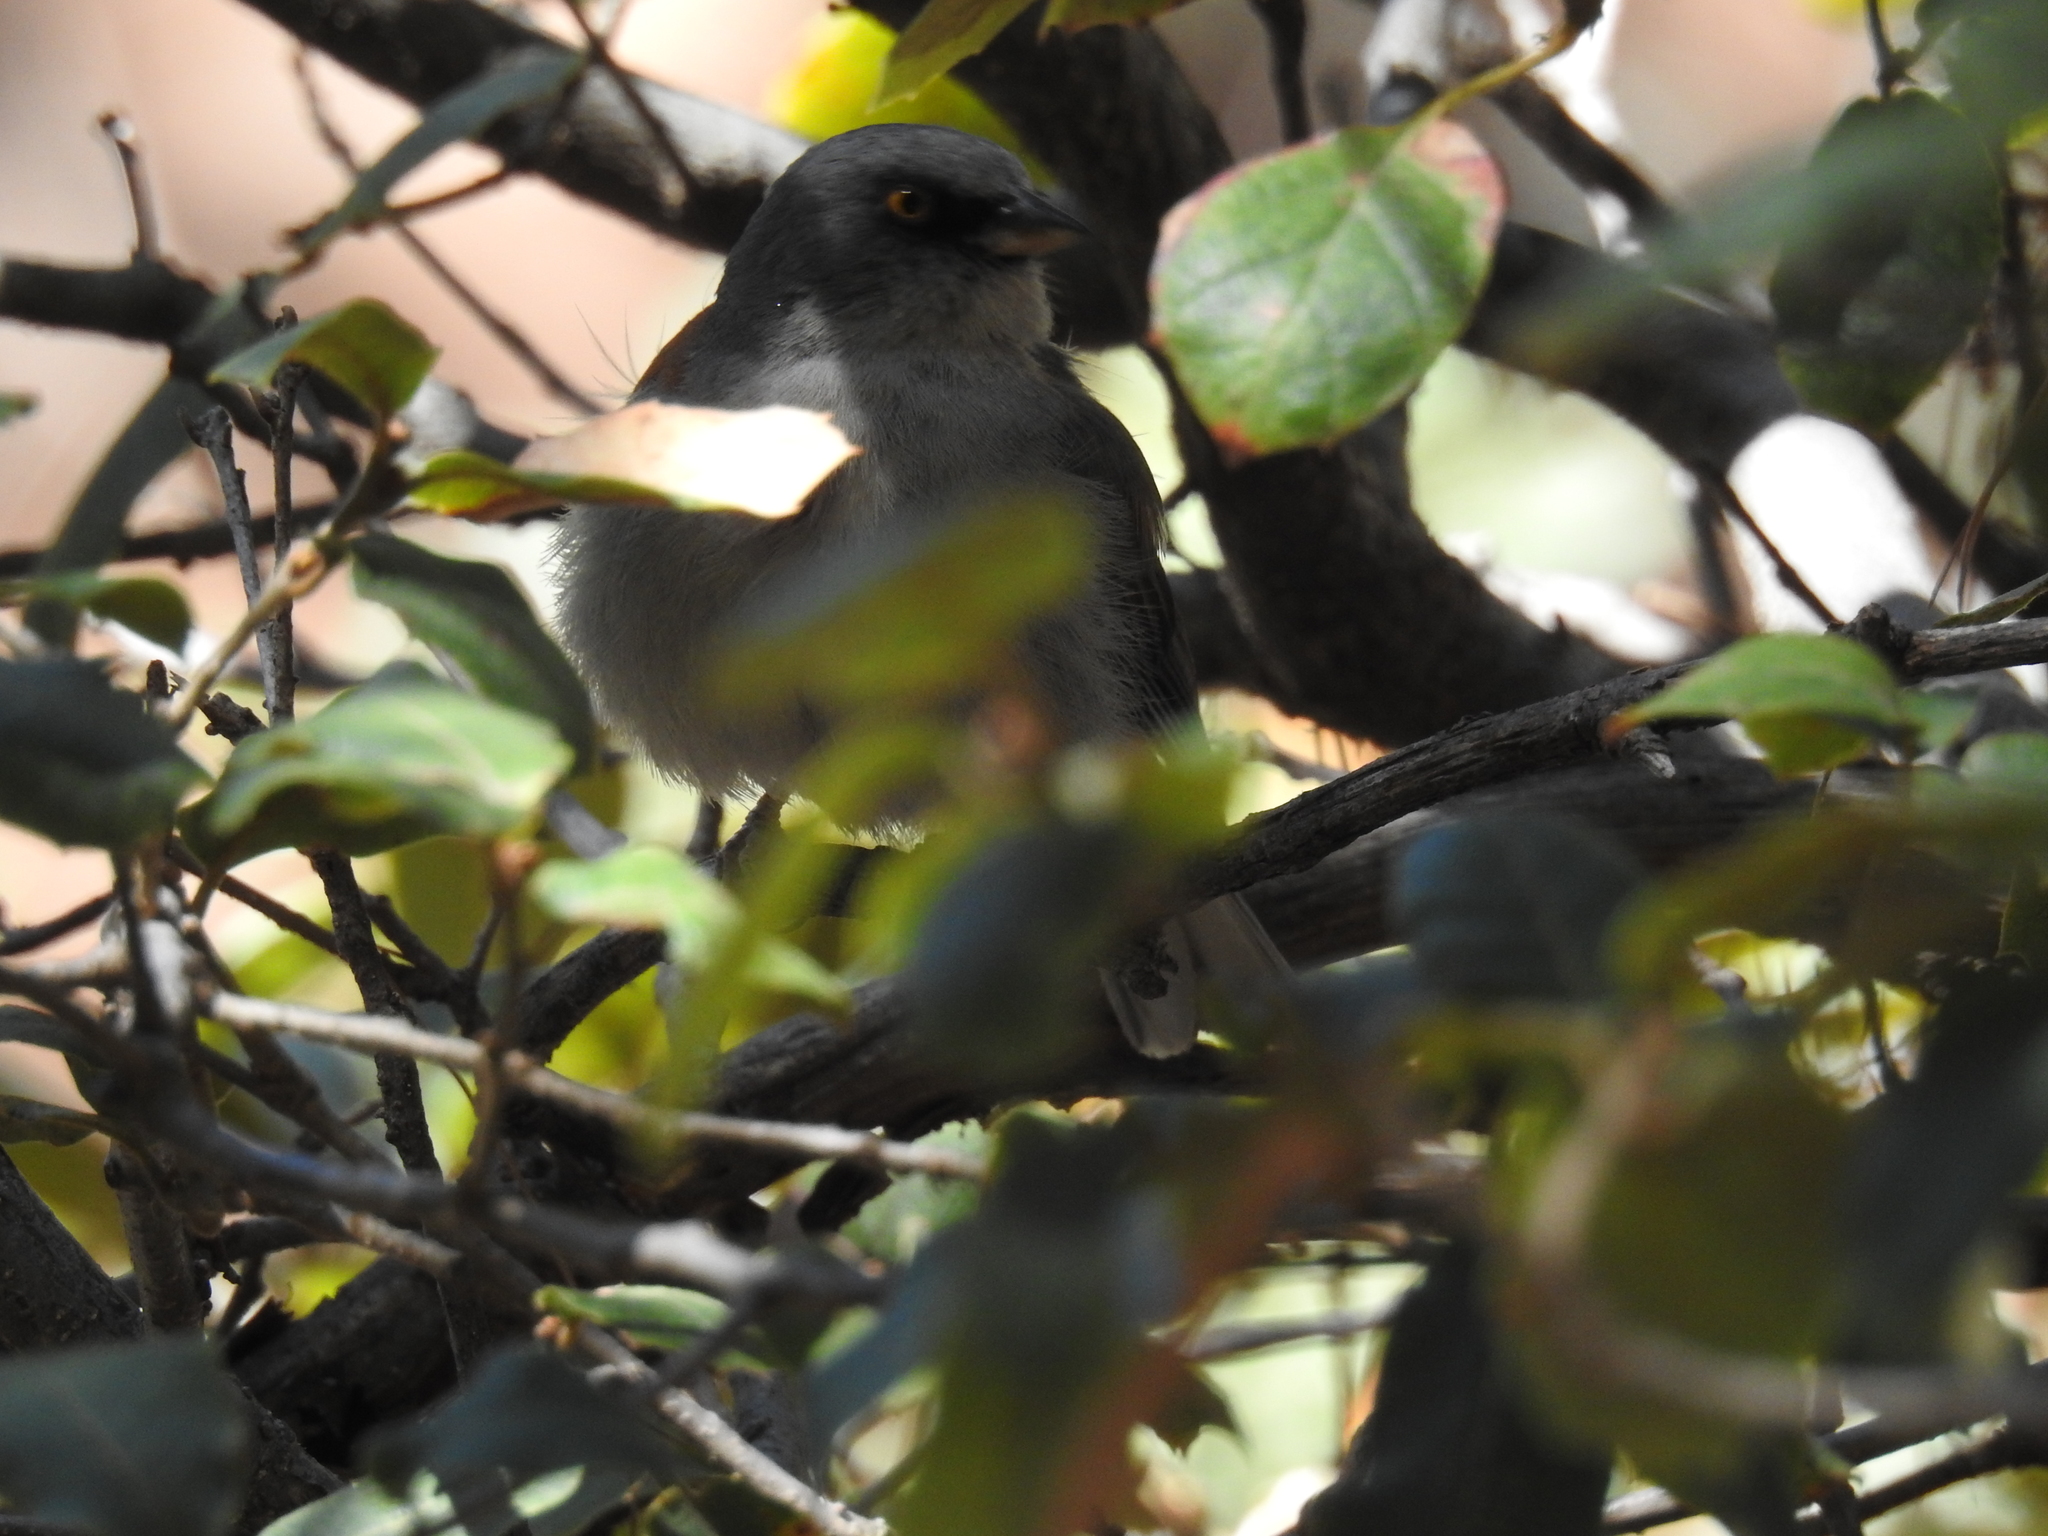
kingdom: Animalia
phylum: Chordata
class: Aves
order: Passeriformes
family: Passerellidae
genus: Junco
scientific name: Junco phaeonotus
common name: Yellow-eyed junco
